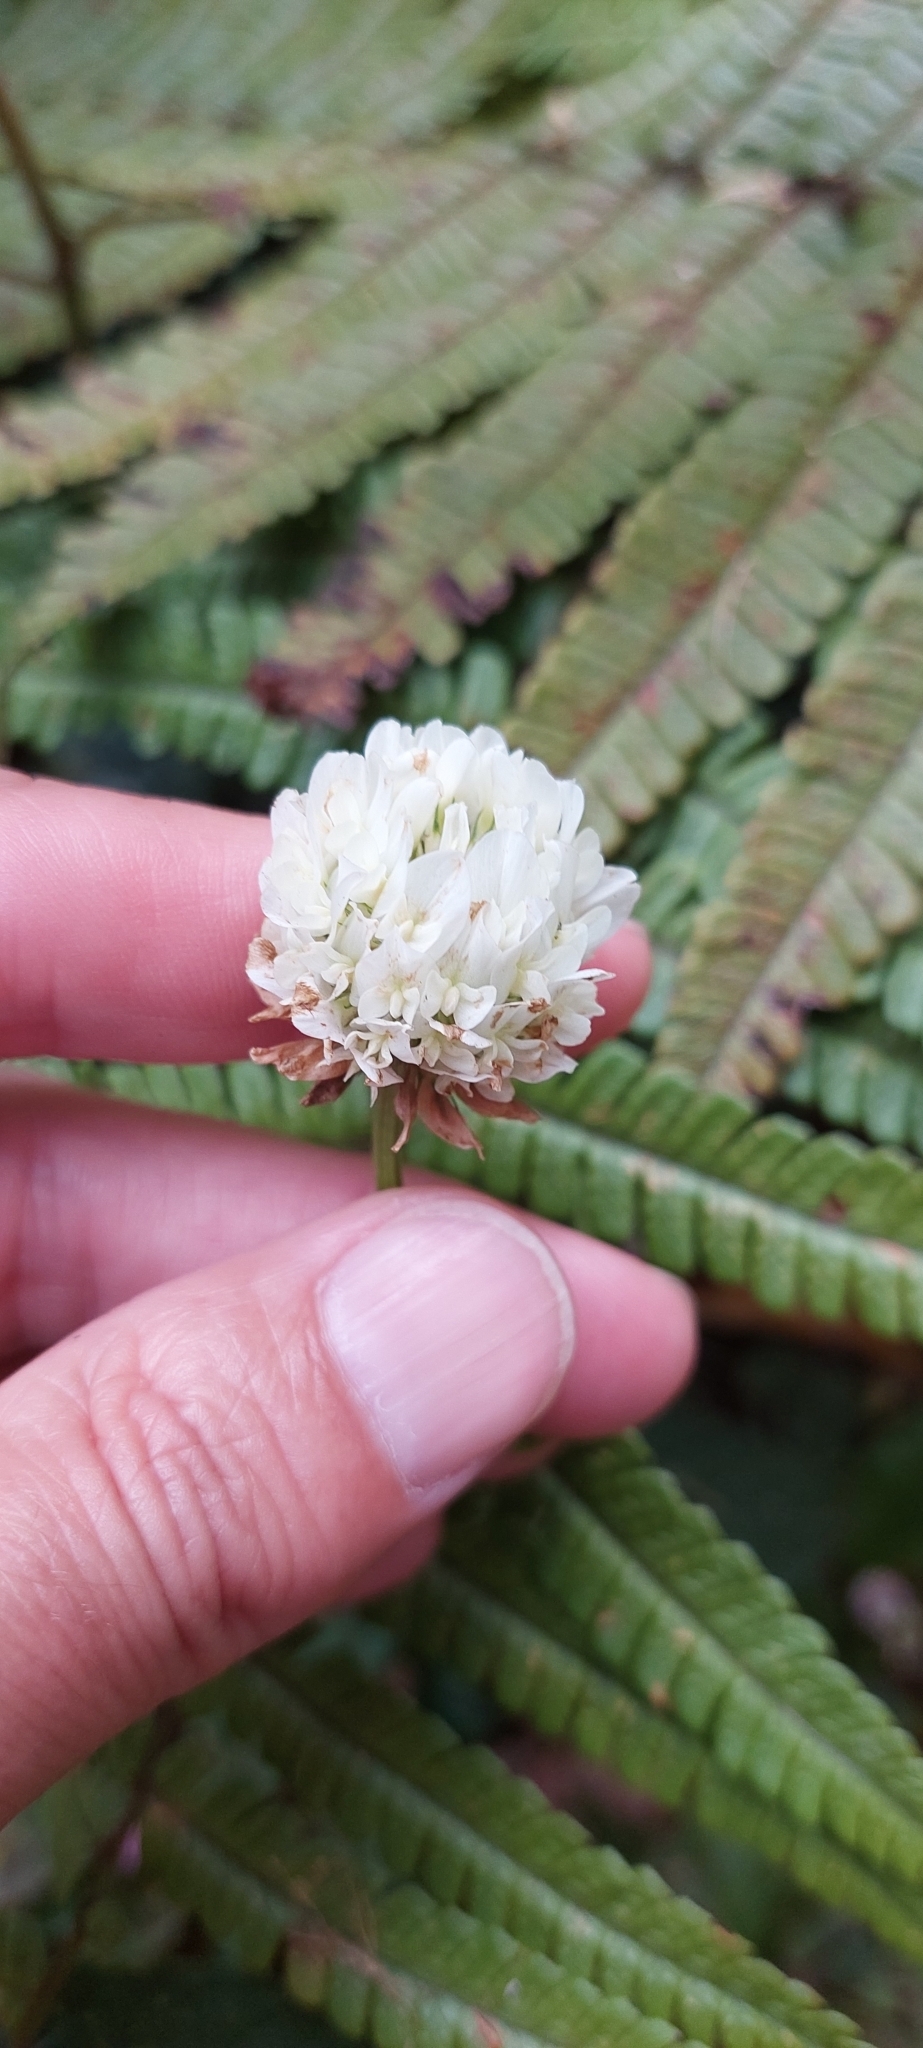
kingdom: Plantae
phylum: Tracheophyta
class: Magnoliopsida
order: Fabales
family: Fabaceae
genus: Trifolium
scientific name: Trifolium repens
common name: White clover
